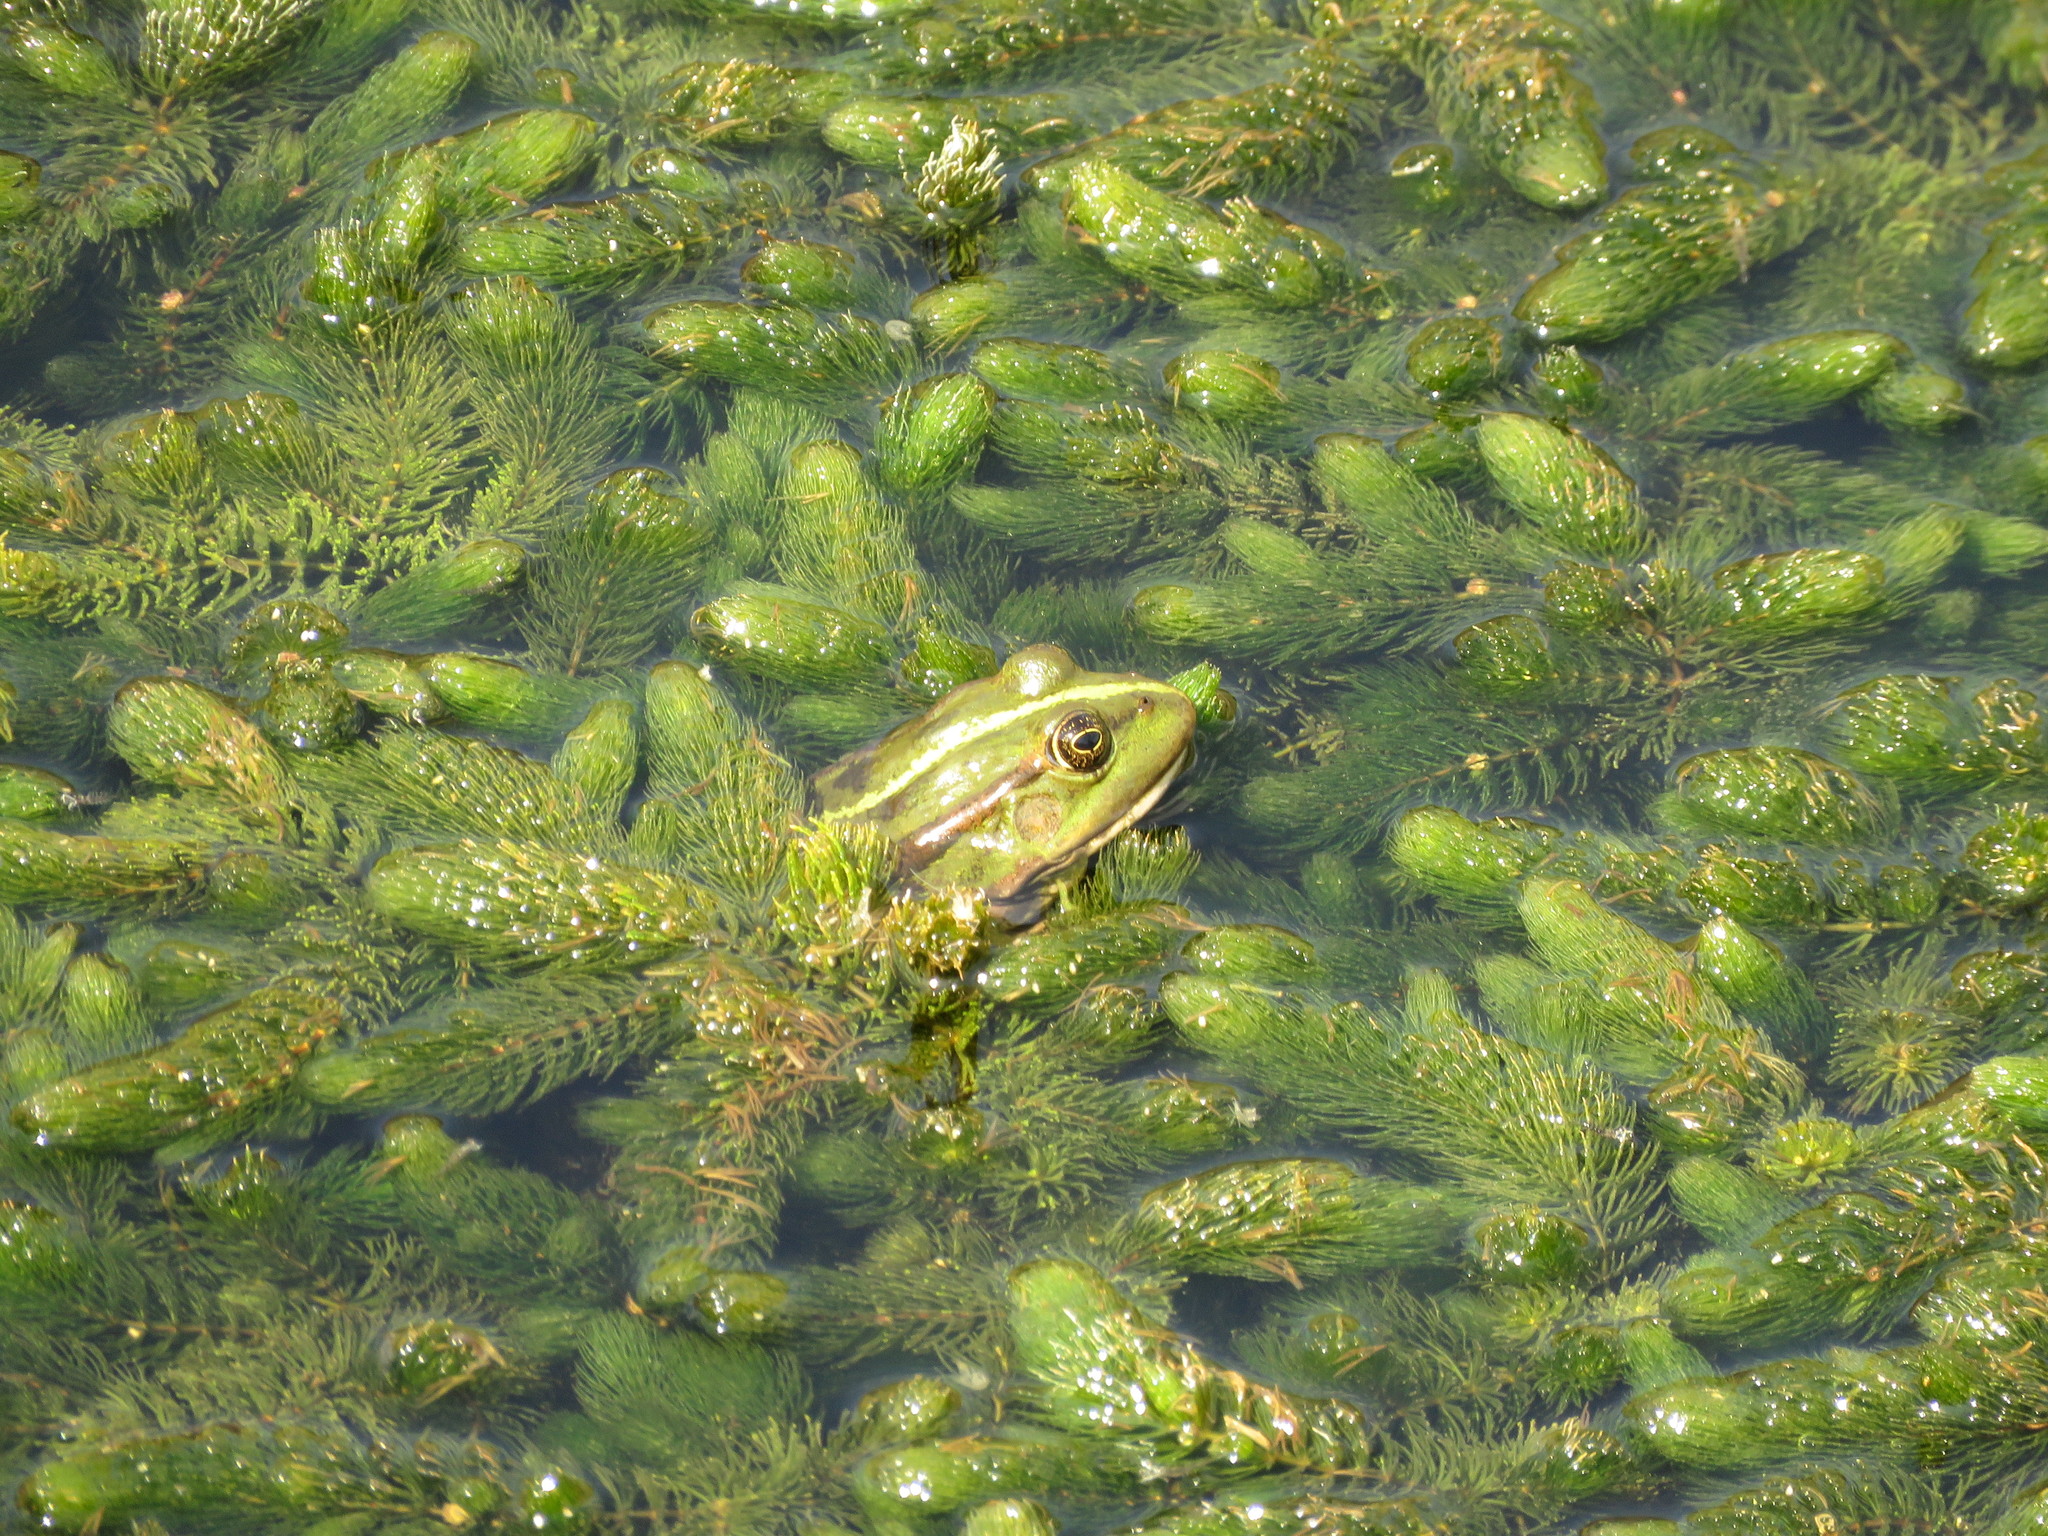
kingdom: Animalia
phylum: Chordata
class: Amphibia
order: Anura
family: Ranidae
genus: Pelophylax
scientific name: Pelophylax ridibundus
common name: Marsh frog
